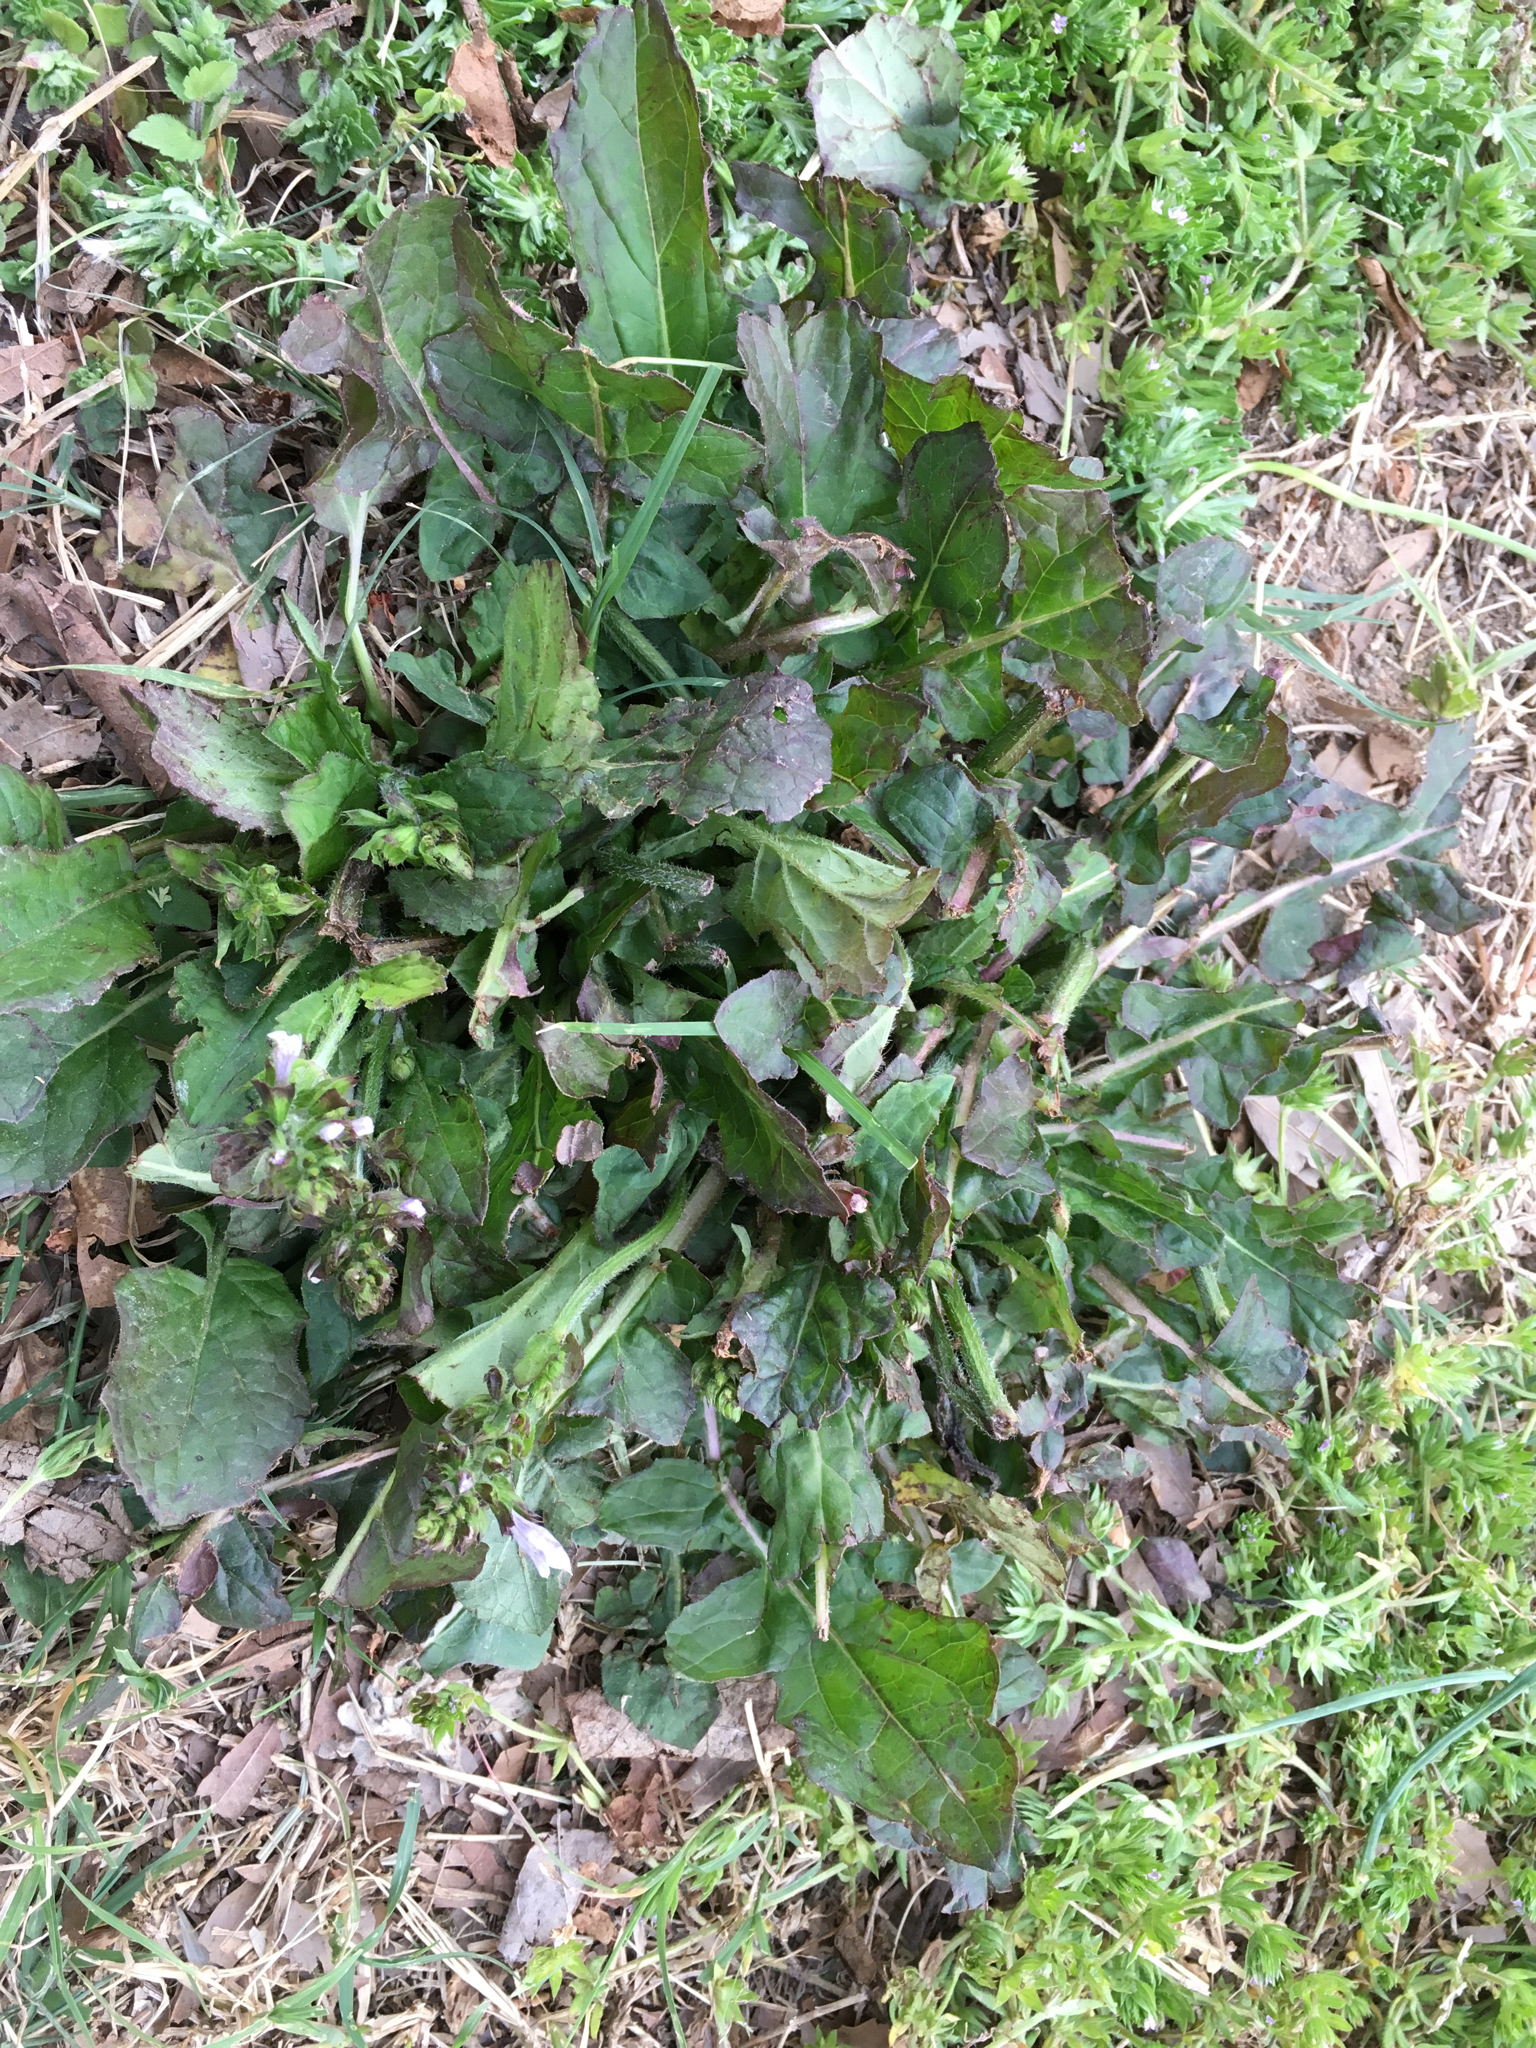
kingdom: Plantae
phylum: Tracheophyta
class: Magnoliopsida
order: Lamiales
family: Lamiaceae
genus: Salvia
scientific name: Salvia lyrata
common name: Cancerweed
